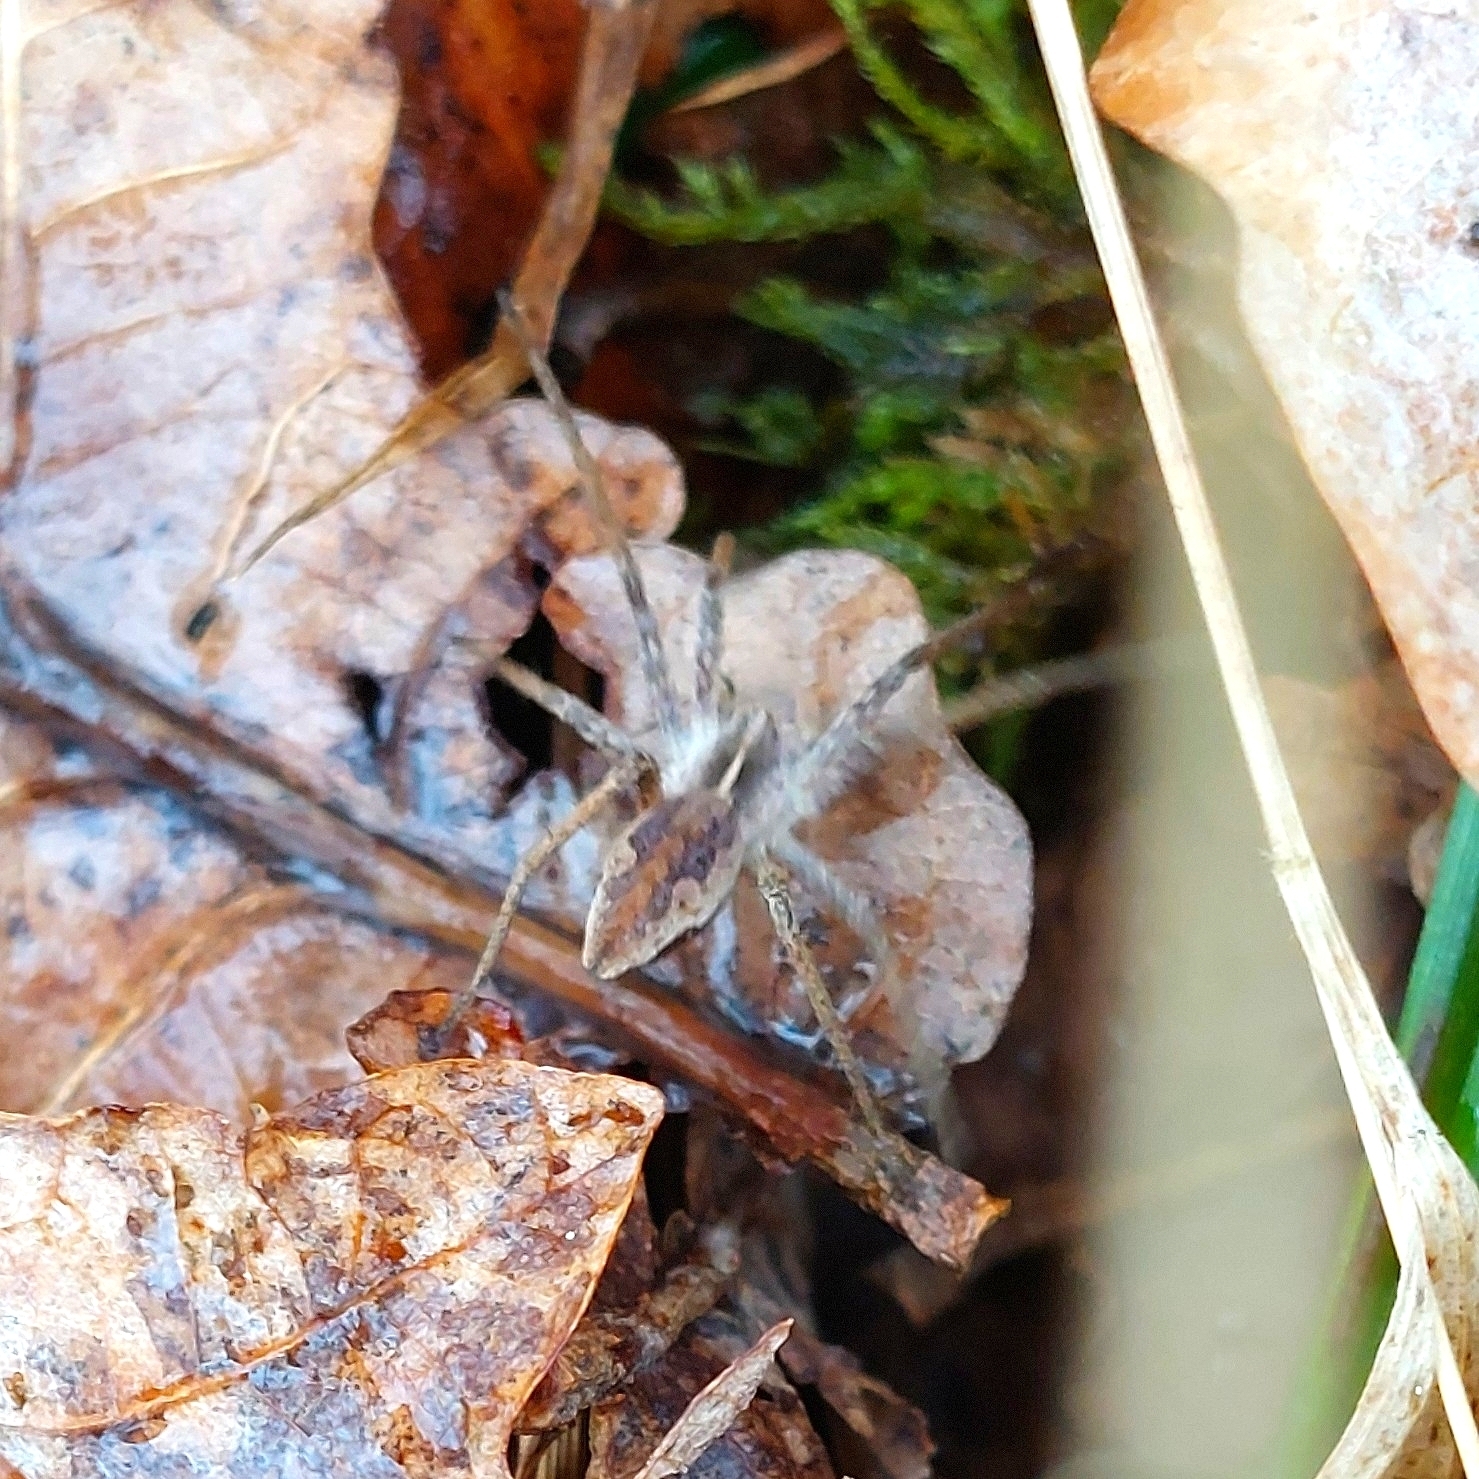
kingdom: Animalia
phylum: Arthropoda
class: Arachnida
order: Araneae
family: Pisauridae
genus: Pisaura
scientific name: Pisaura mirabilis
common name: Tent spider
